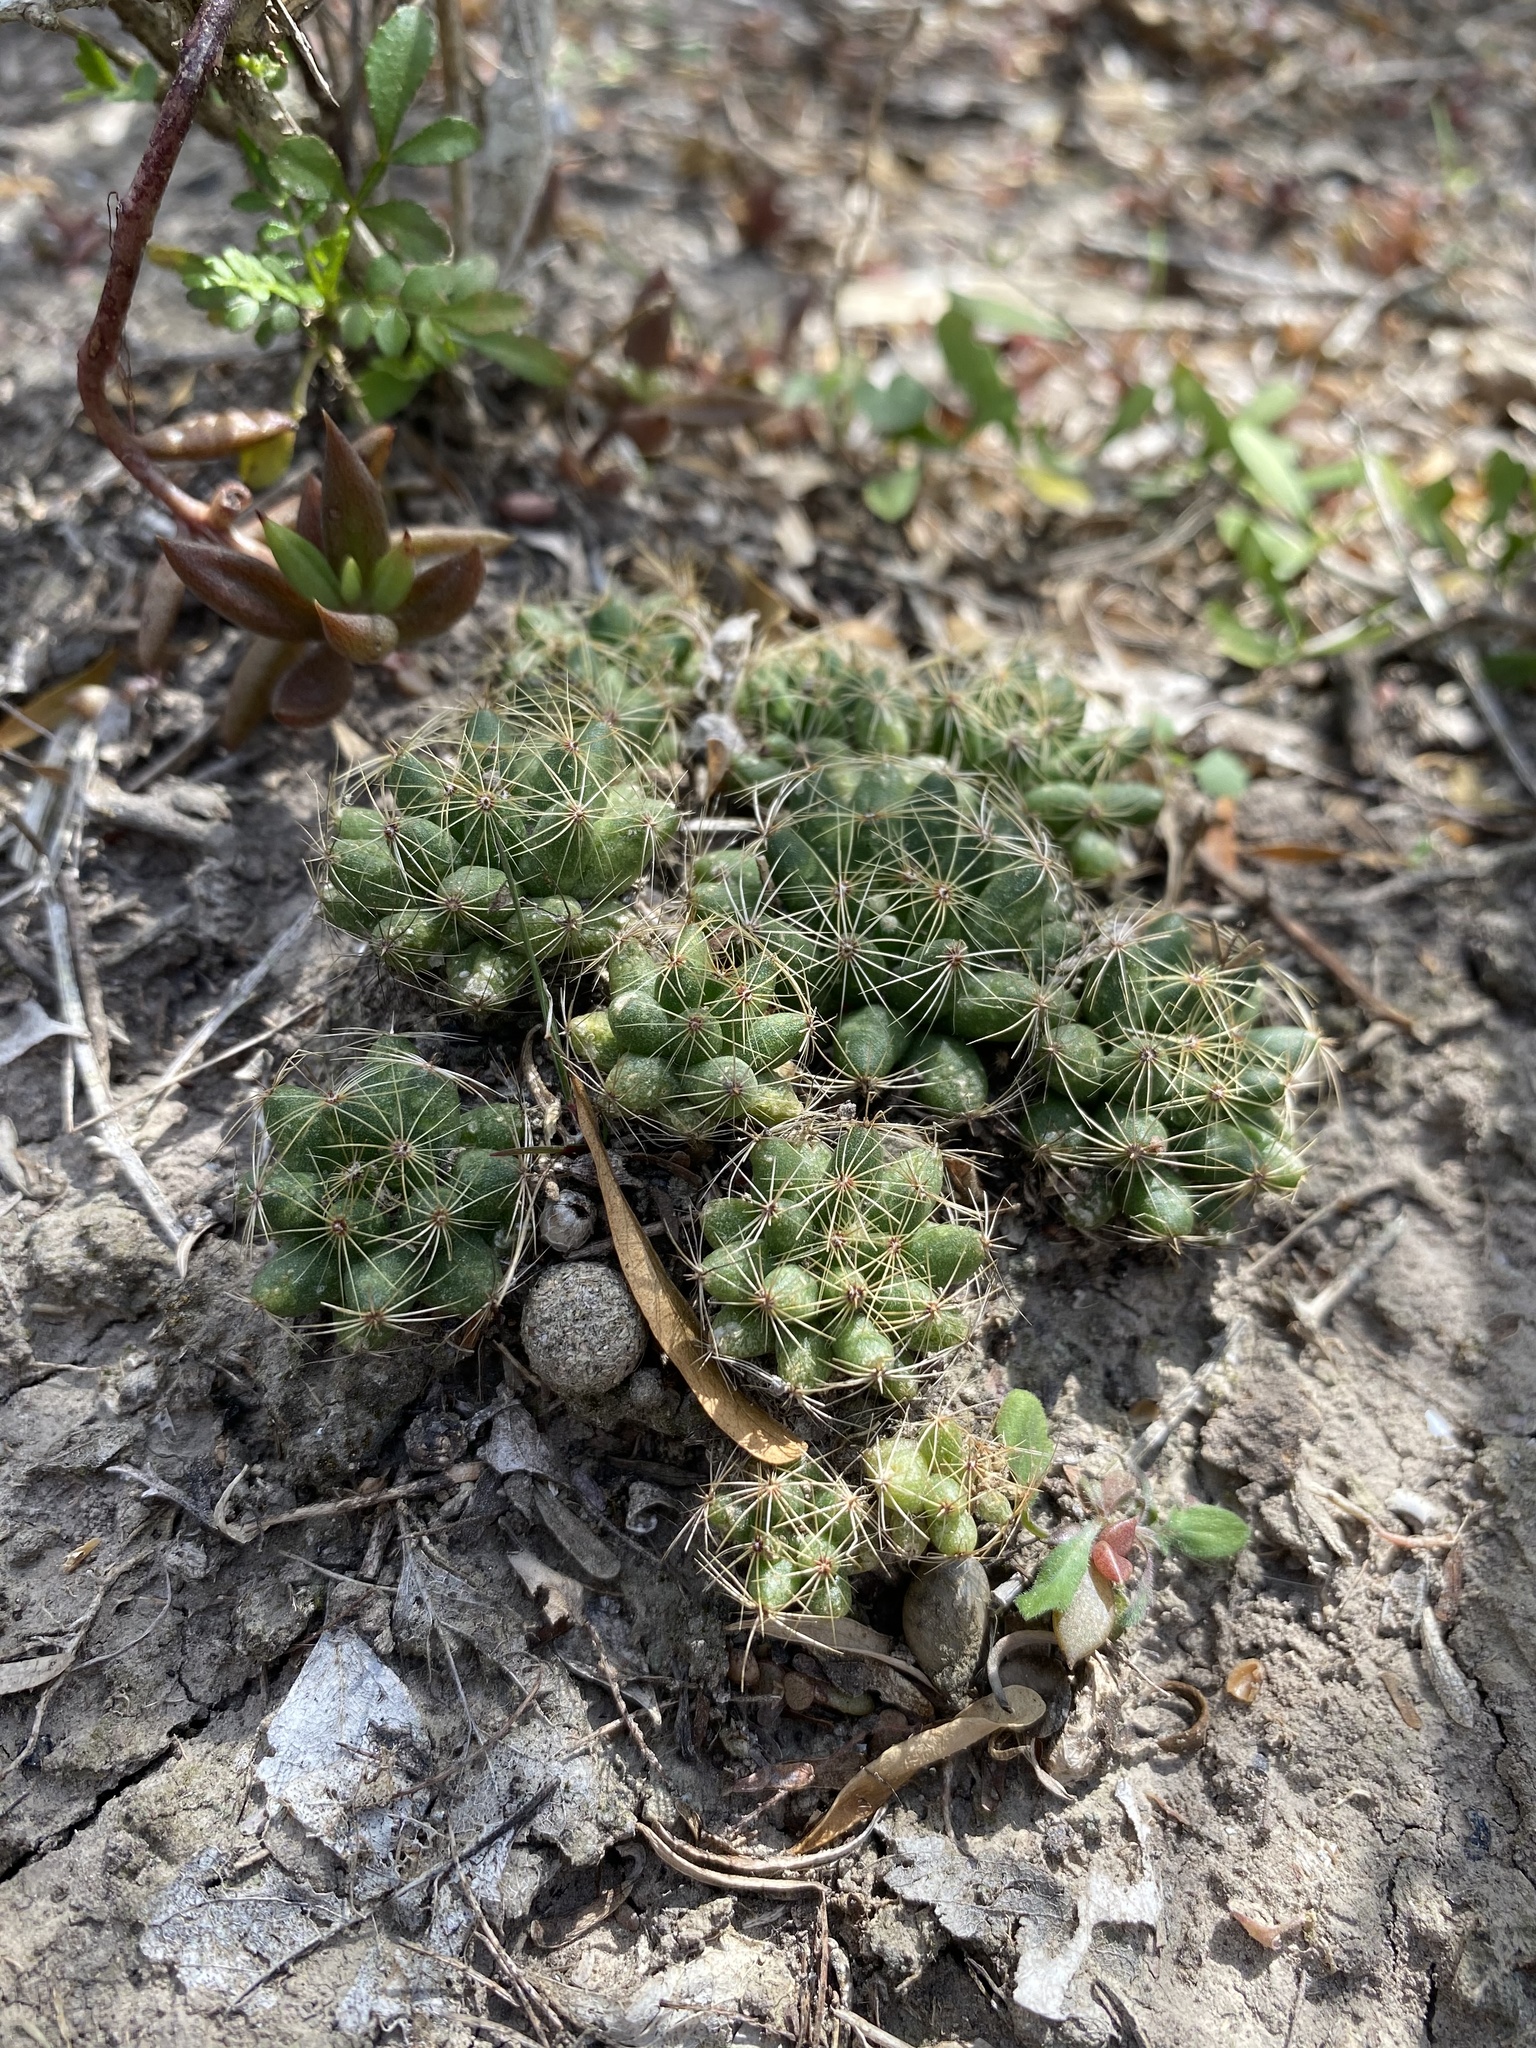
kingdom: Plantae
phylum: Tracheophyta
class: Magnoliopsida
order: Caryophyllales
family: Cactaceae
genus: Mammillaria
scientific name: Mammillaria sphaerica
